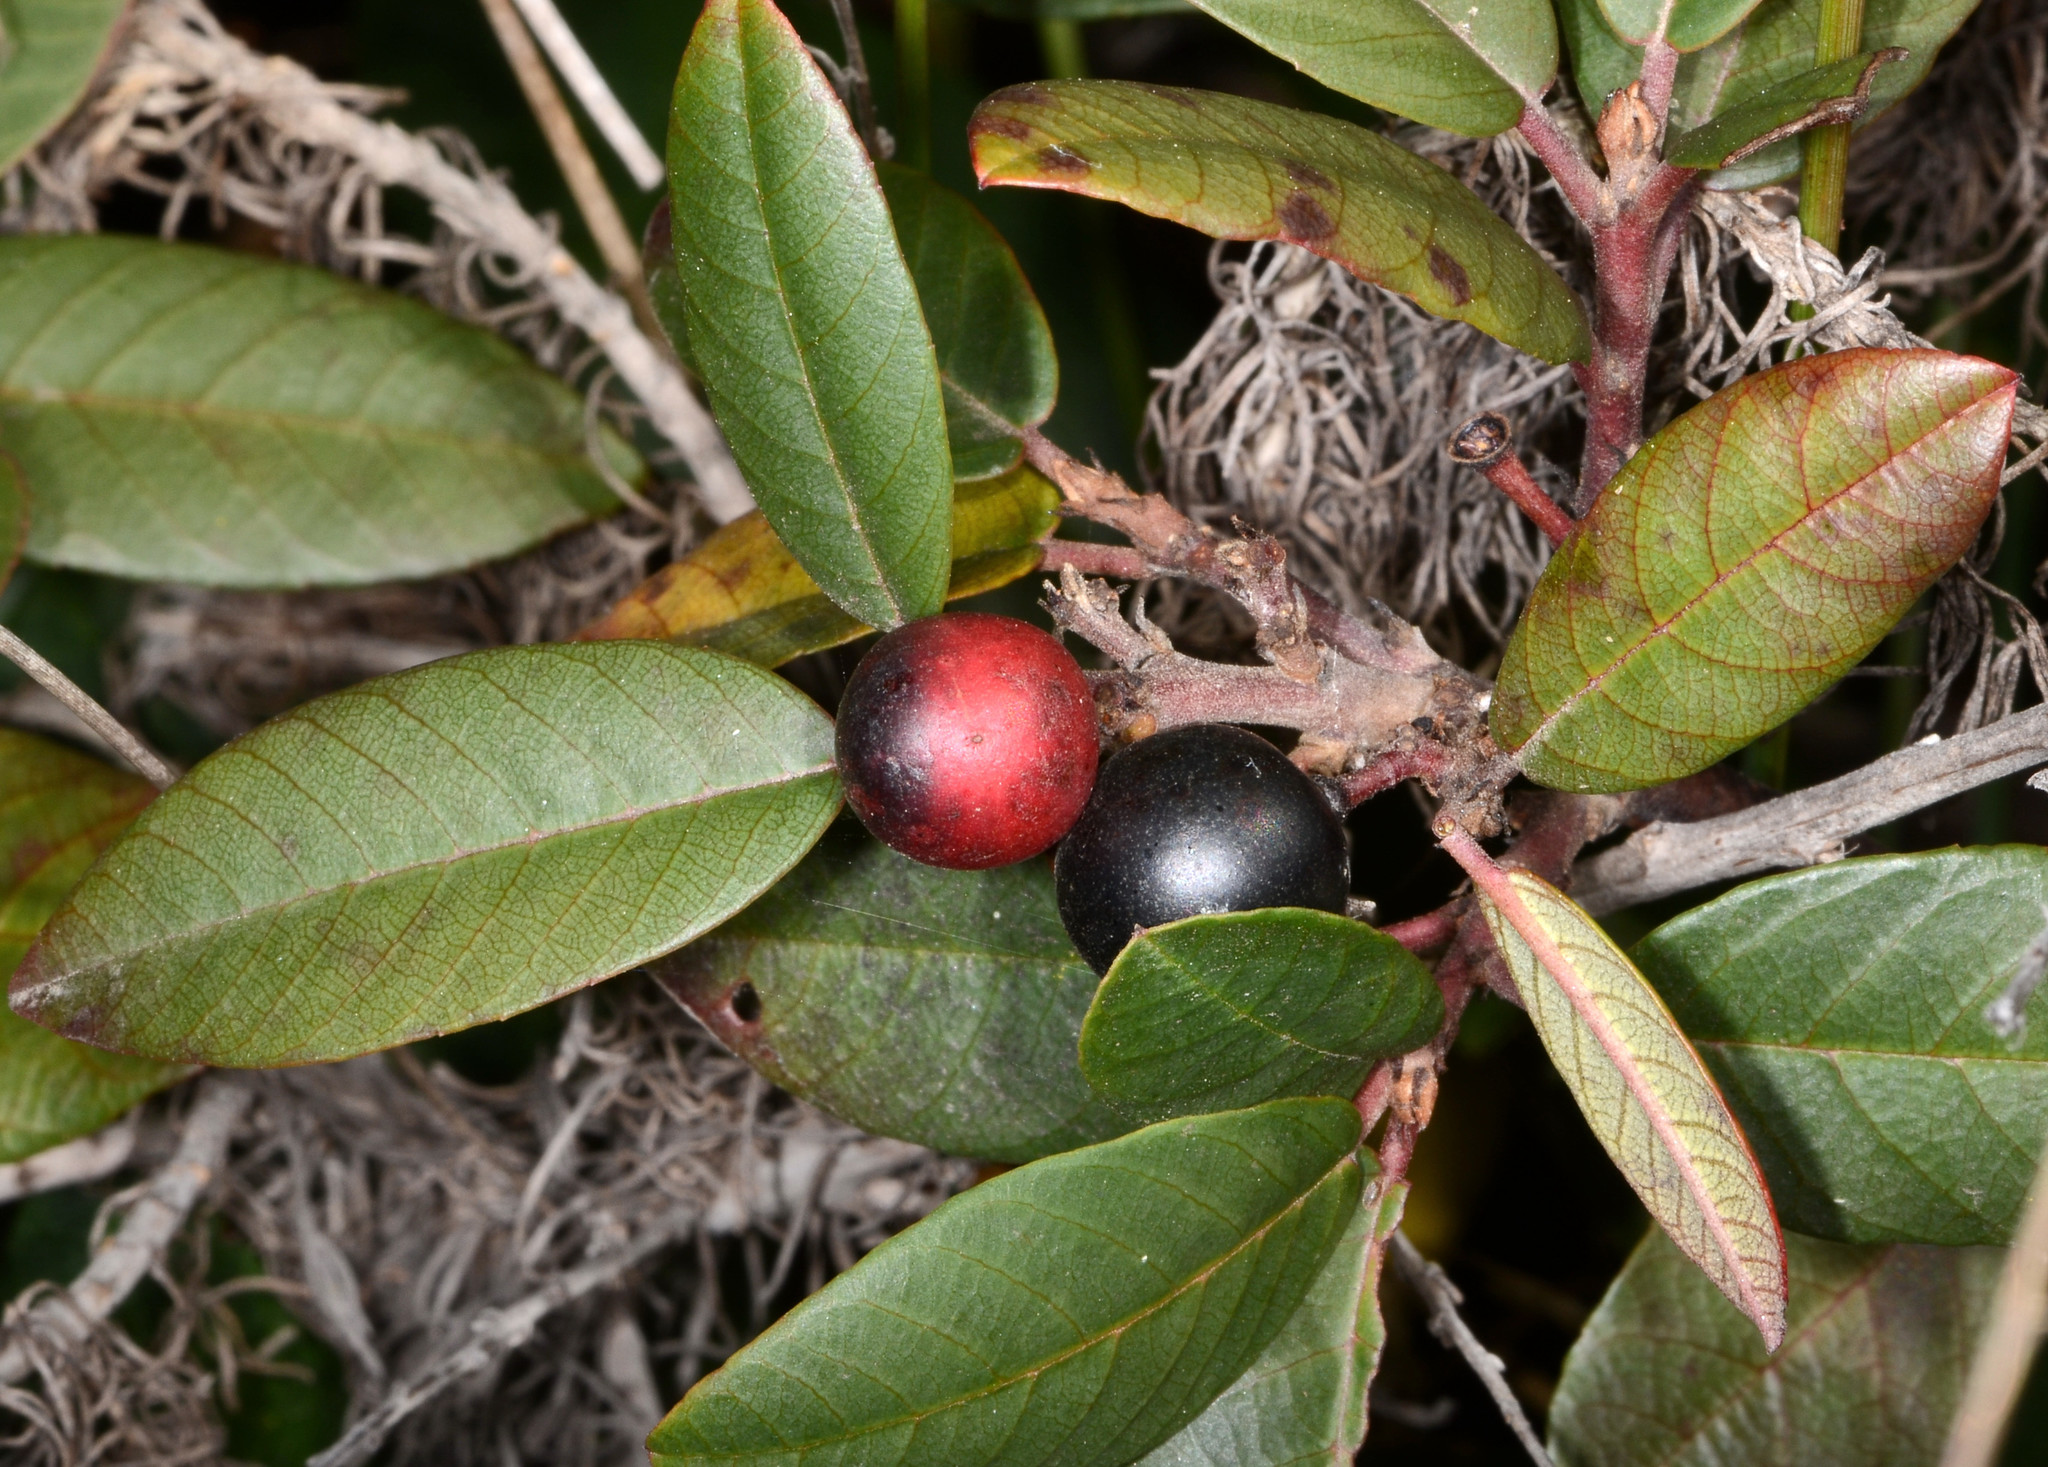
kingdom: Plantae
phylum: Tracheophyta
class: Magnoliopsida
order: Rosales
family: Rhamnaceae
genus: Frangula
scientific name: Frangula californica
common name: California buckthorn
